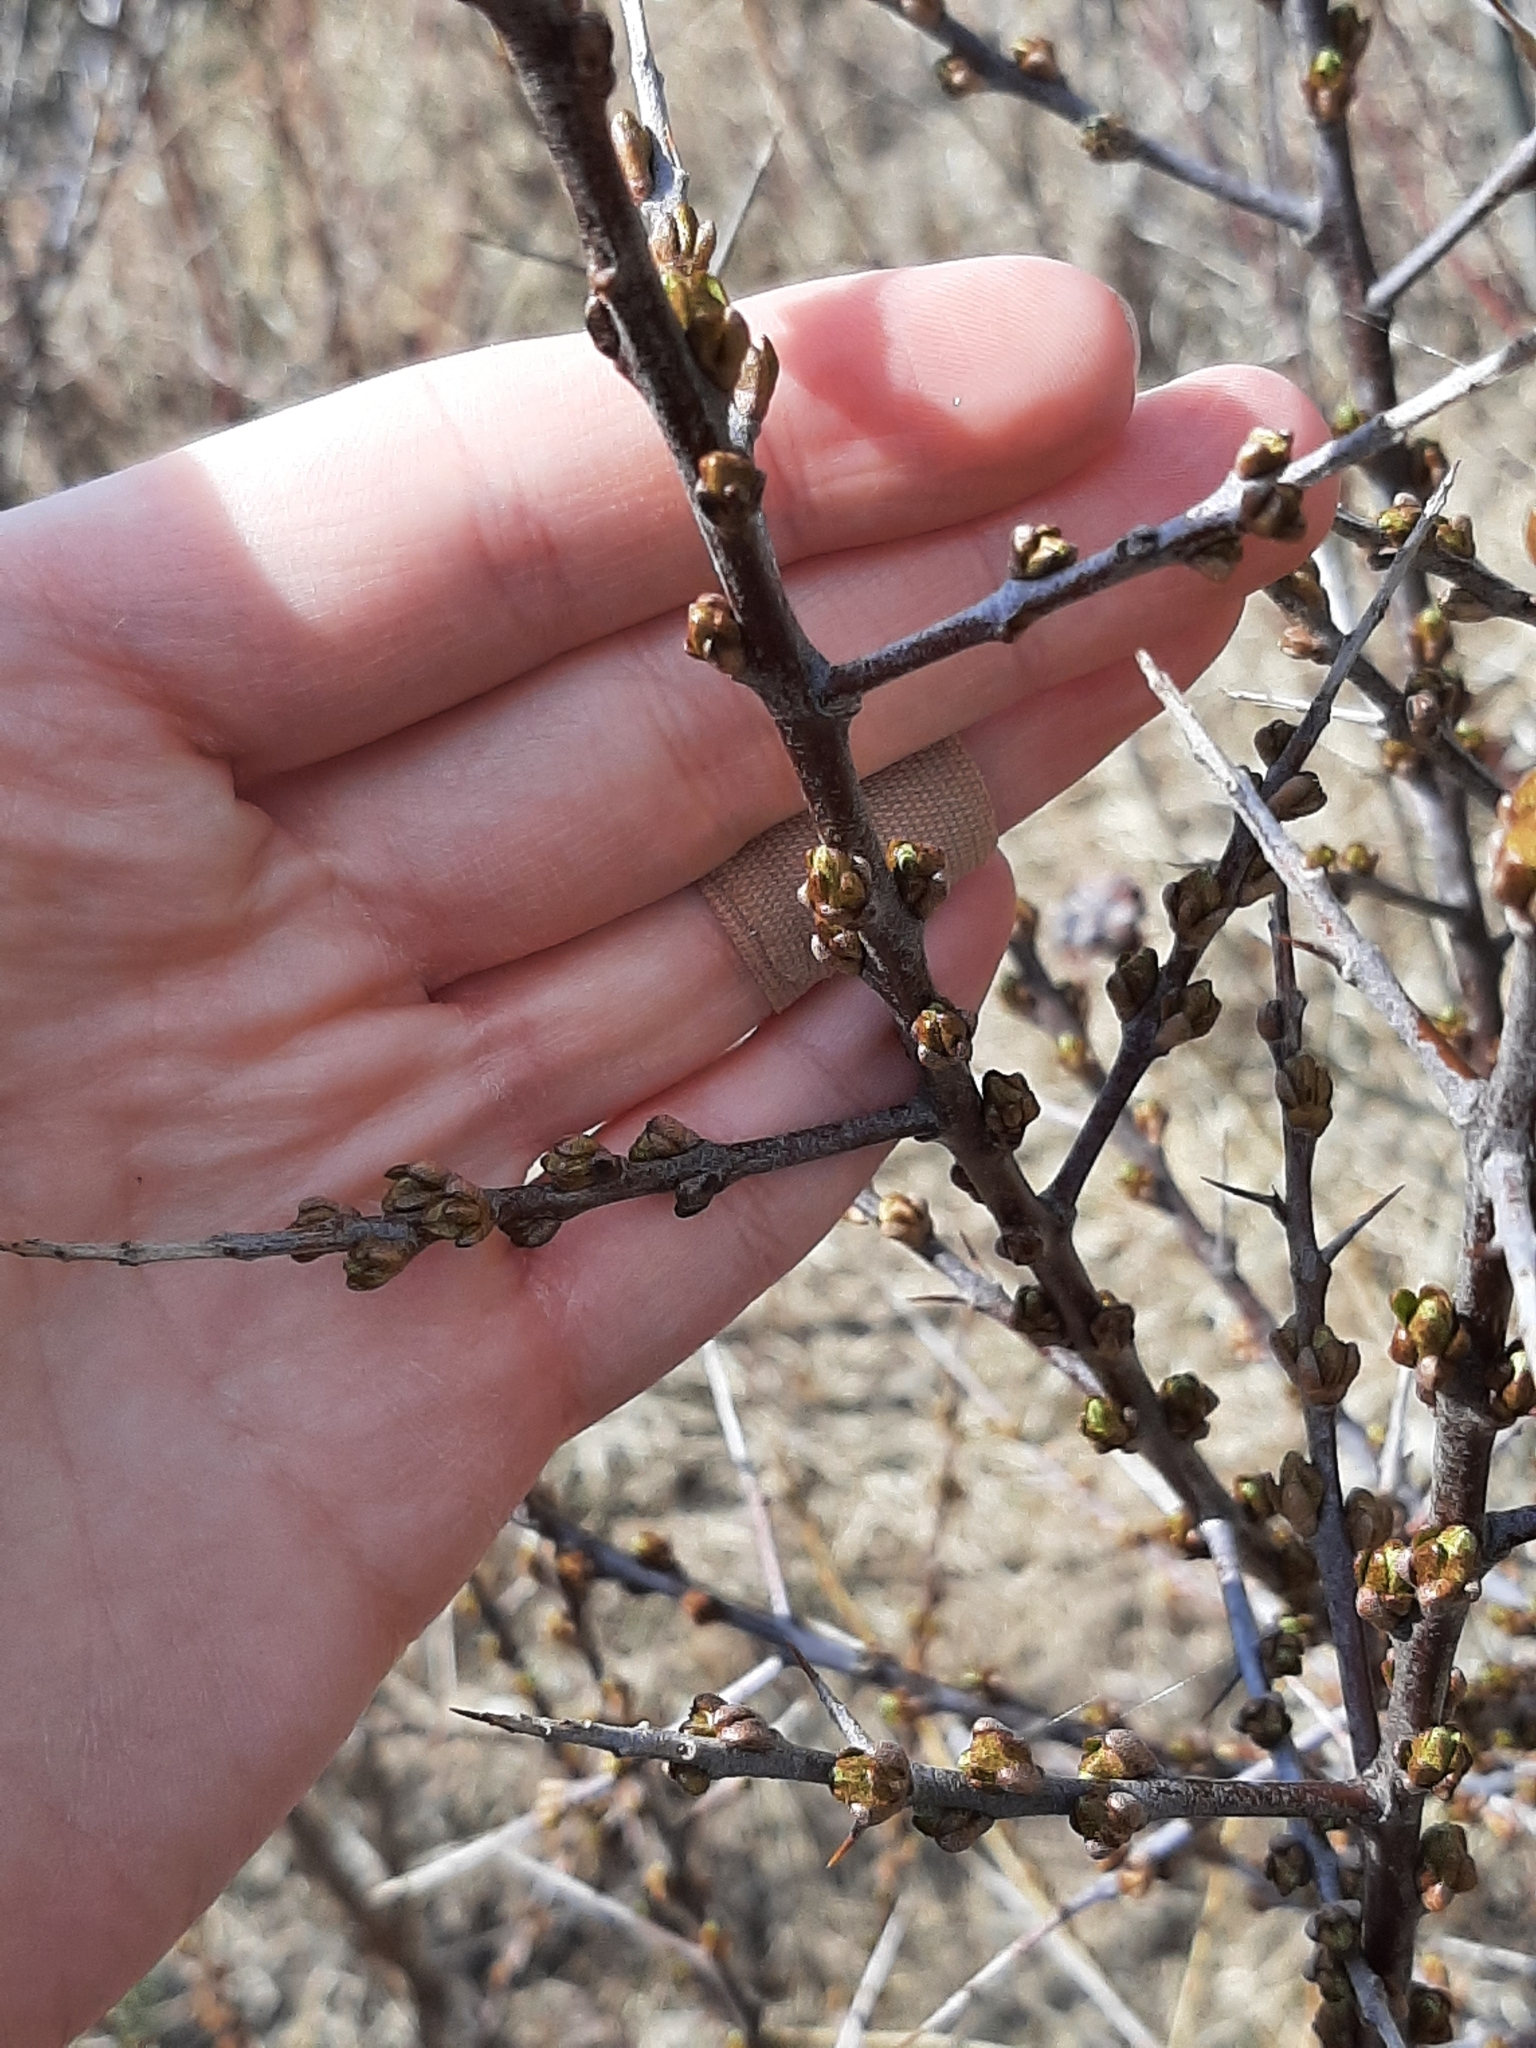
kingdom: Plantae
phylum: Tracheophyta
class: Magnoliopsida
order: Rosales
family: Elaeagnaceae
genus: Hippophae
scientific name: Hippophae rhamnoides
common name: Sea-buckthorn
